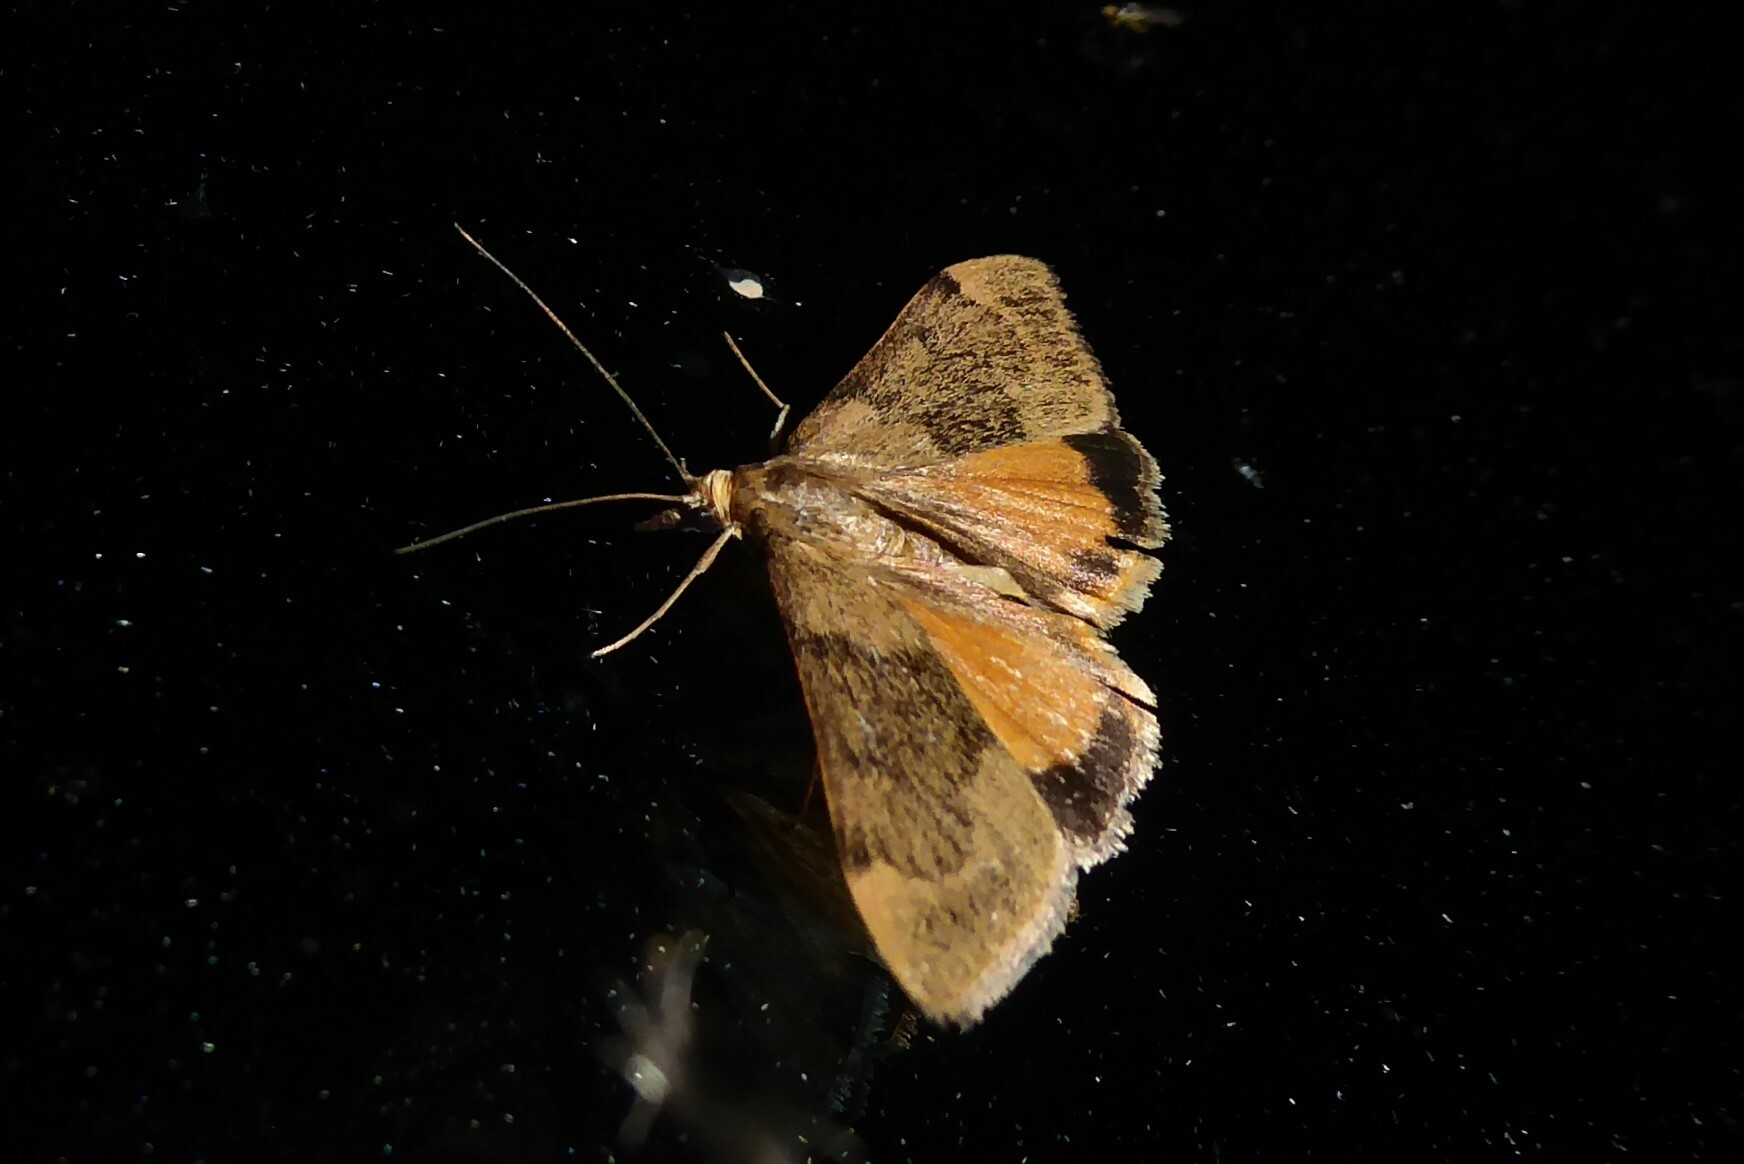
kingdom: Animalia
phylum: Arthropoda
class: Insecta
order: Lepidoptera
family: Crambidae
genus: Uresiphita
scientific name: Uresiphita
